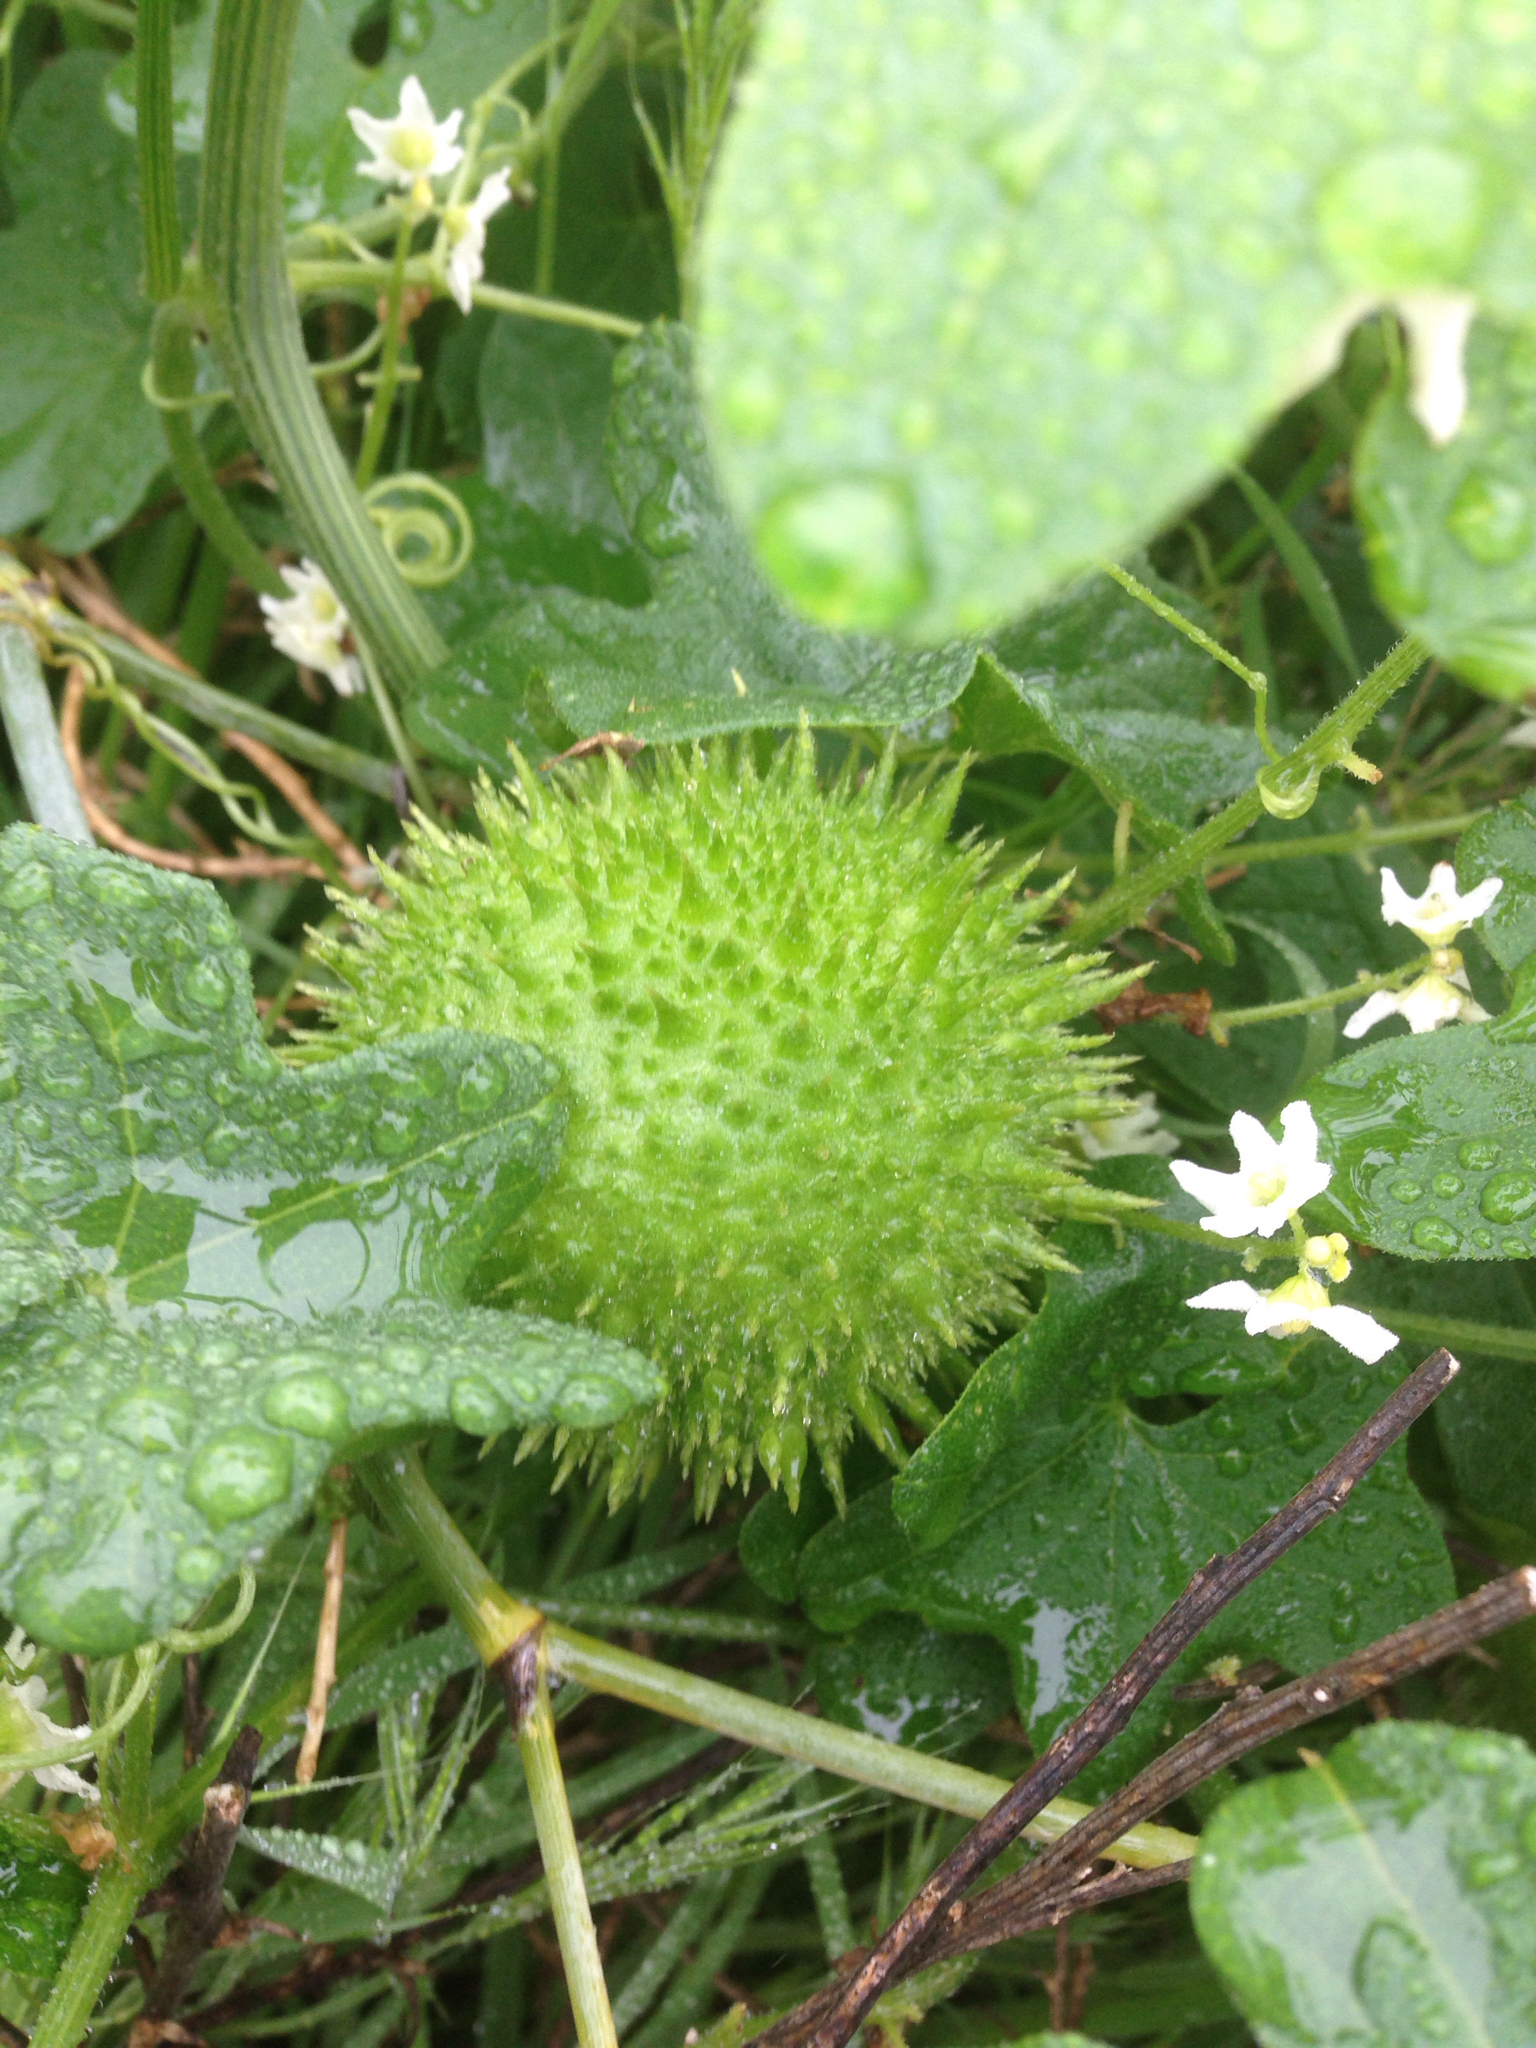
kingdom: Plantae
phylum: Tracheophyta
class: Magnoliopsida
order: Cucurbitales
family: Cucurbitaceae
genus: Marah
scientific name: Marah macrocarpa
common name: Cucamonga manroot
